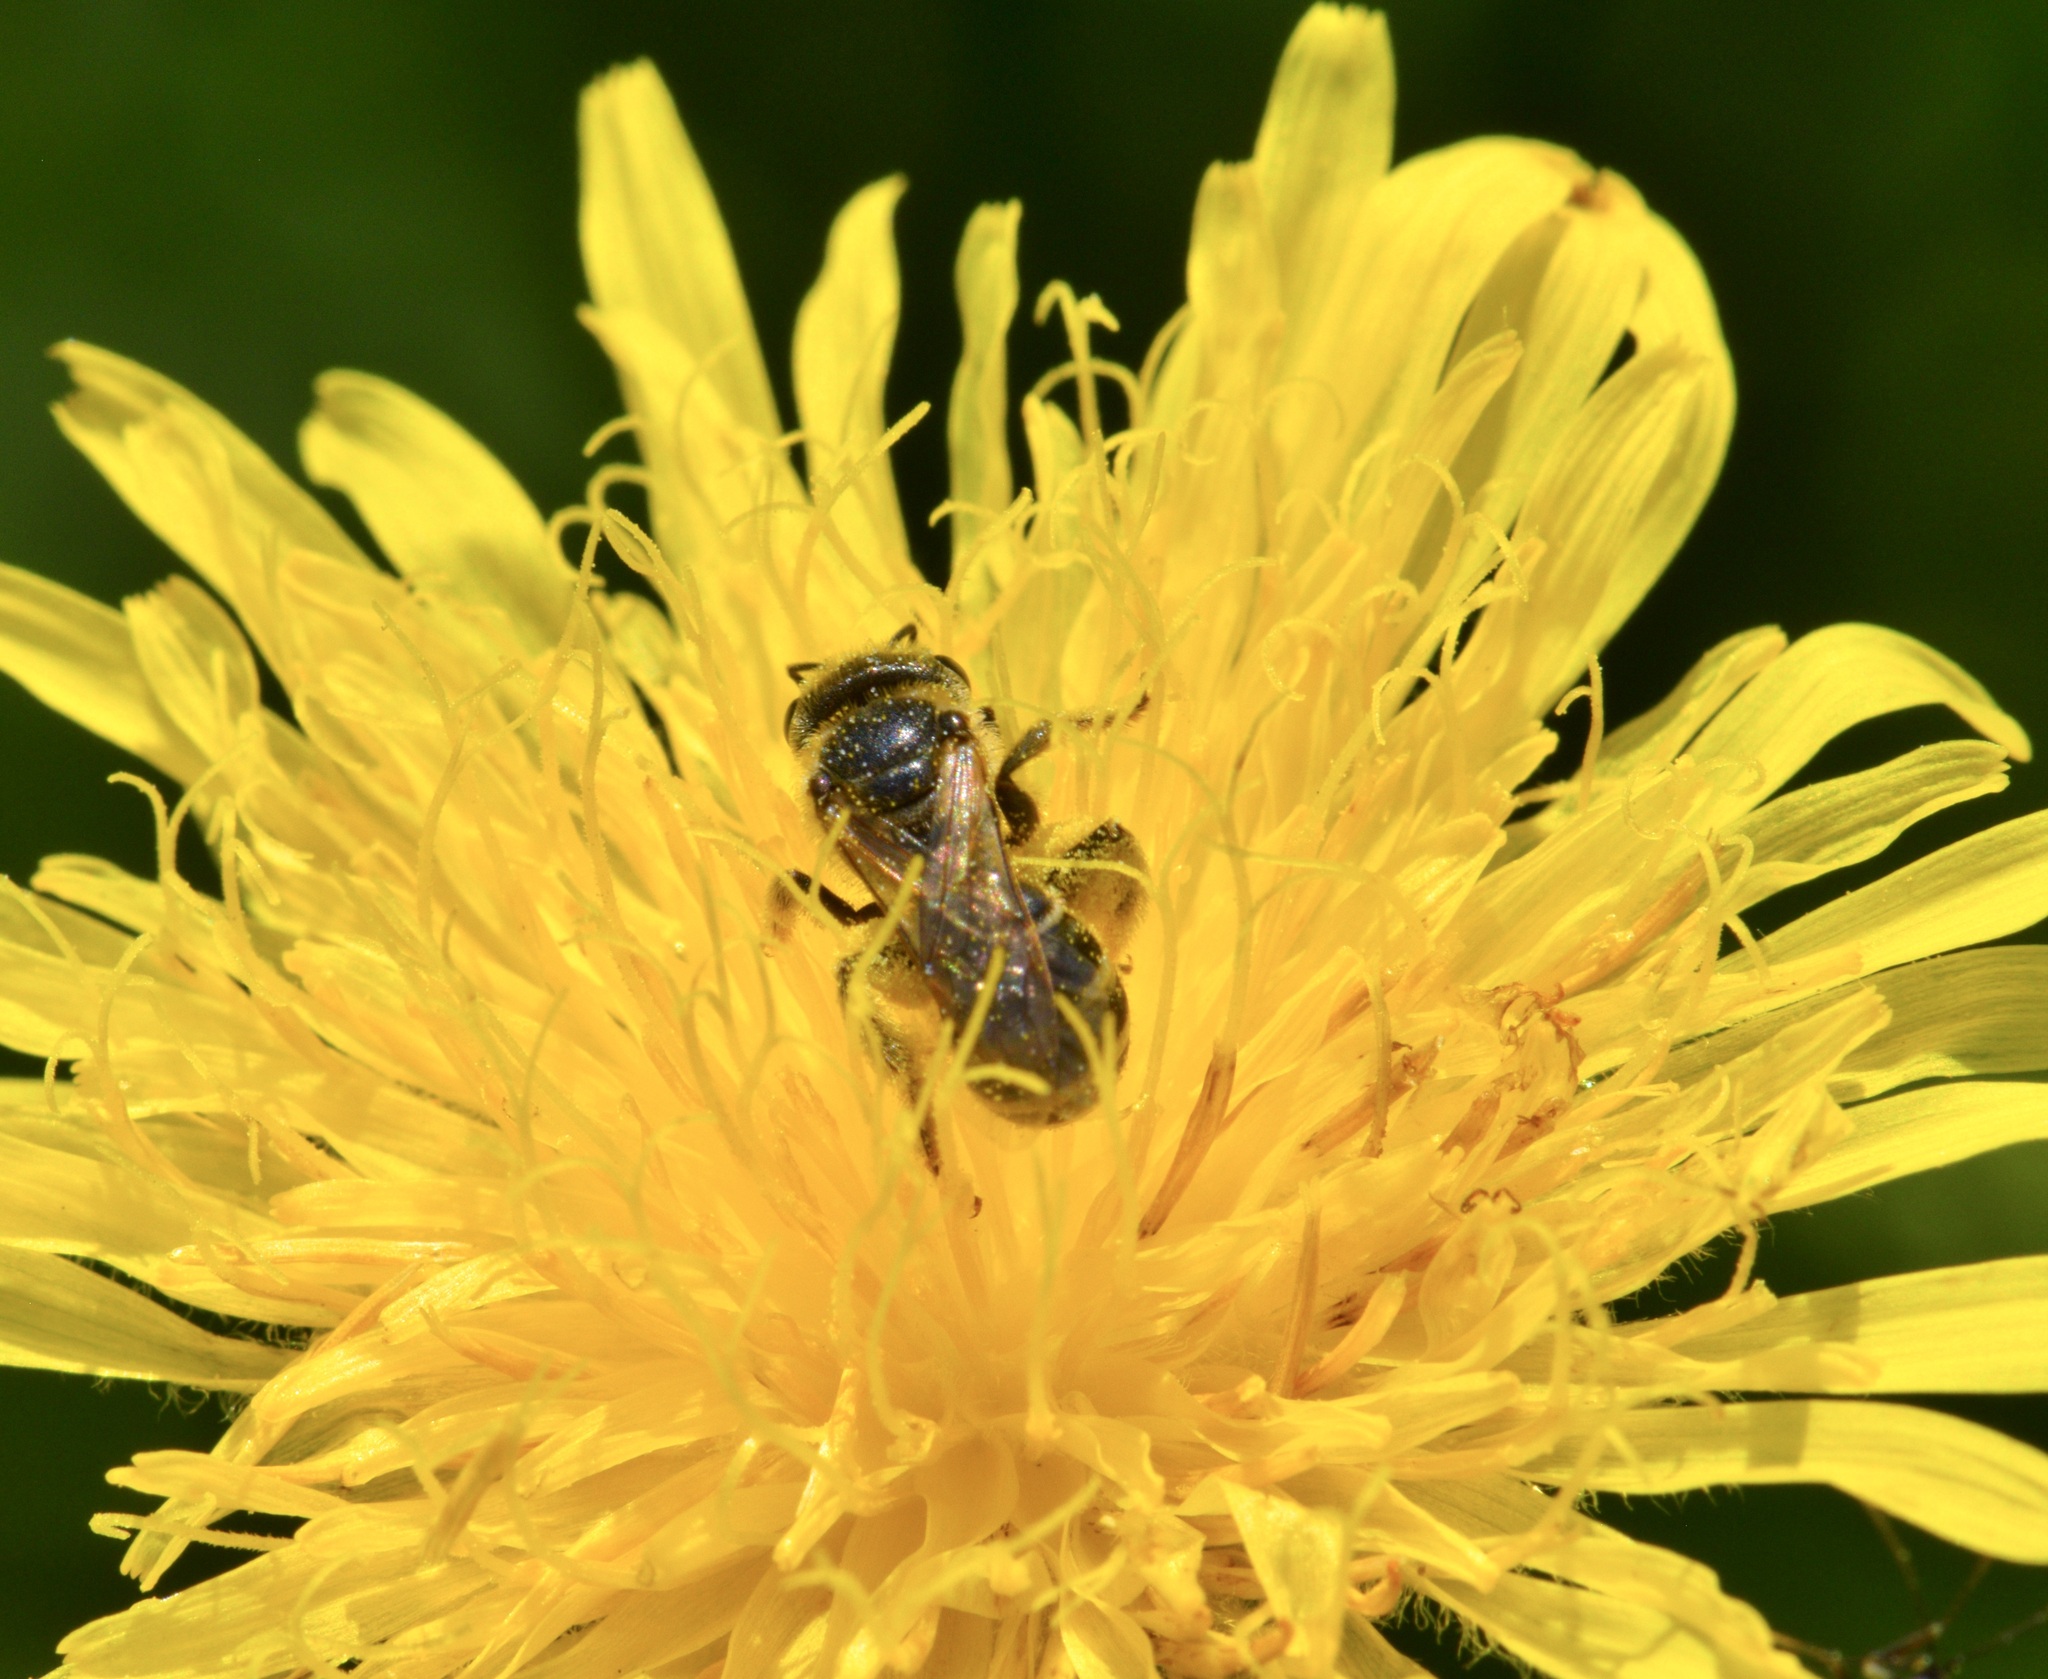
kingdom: Animalia
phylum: Arthropoda
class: Insecta
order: Hymenoptera
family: Halictidae
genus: Halictus
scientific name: Halictus ligatus
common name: Ligated furrow bee
